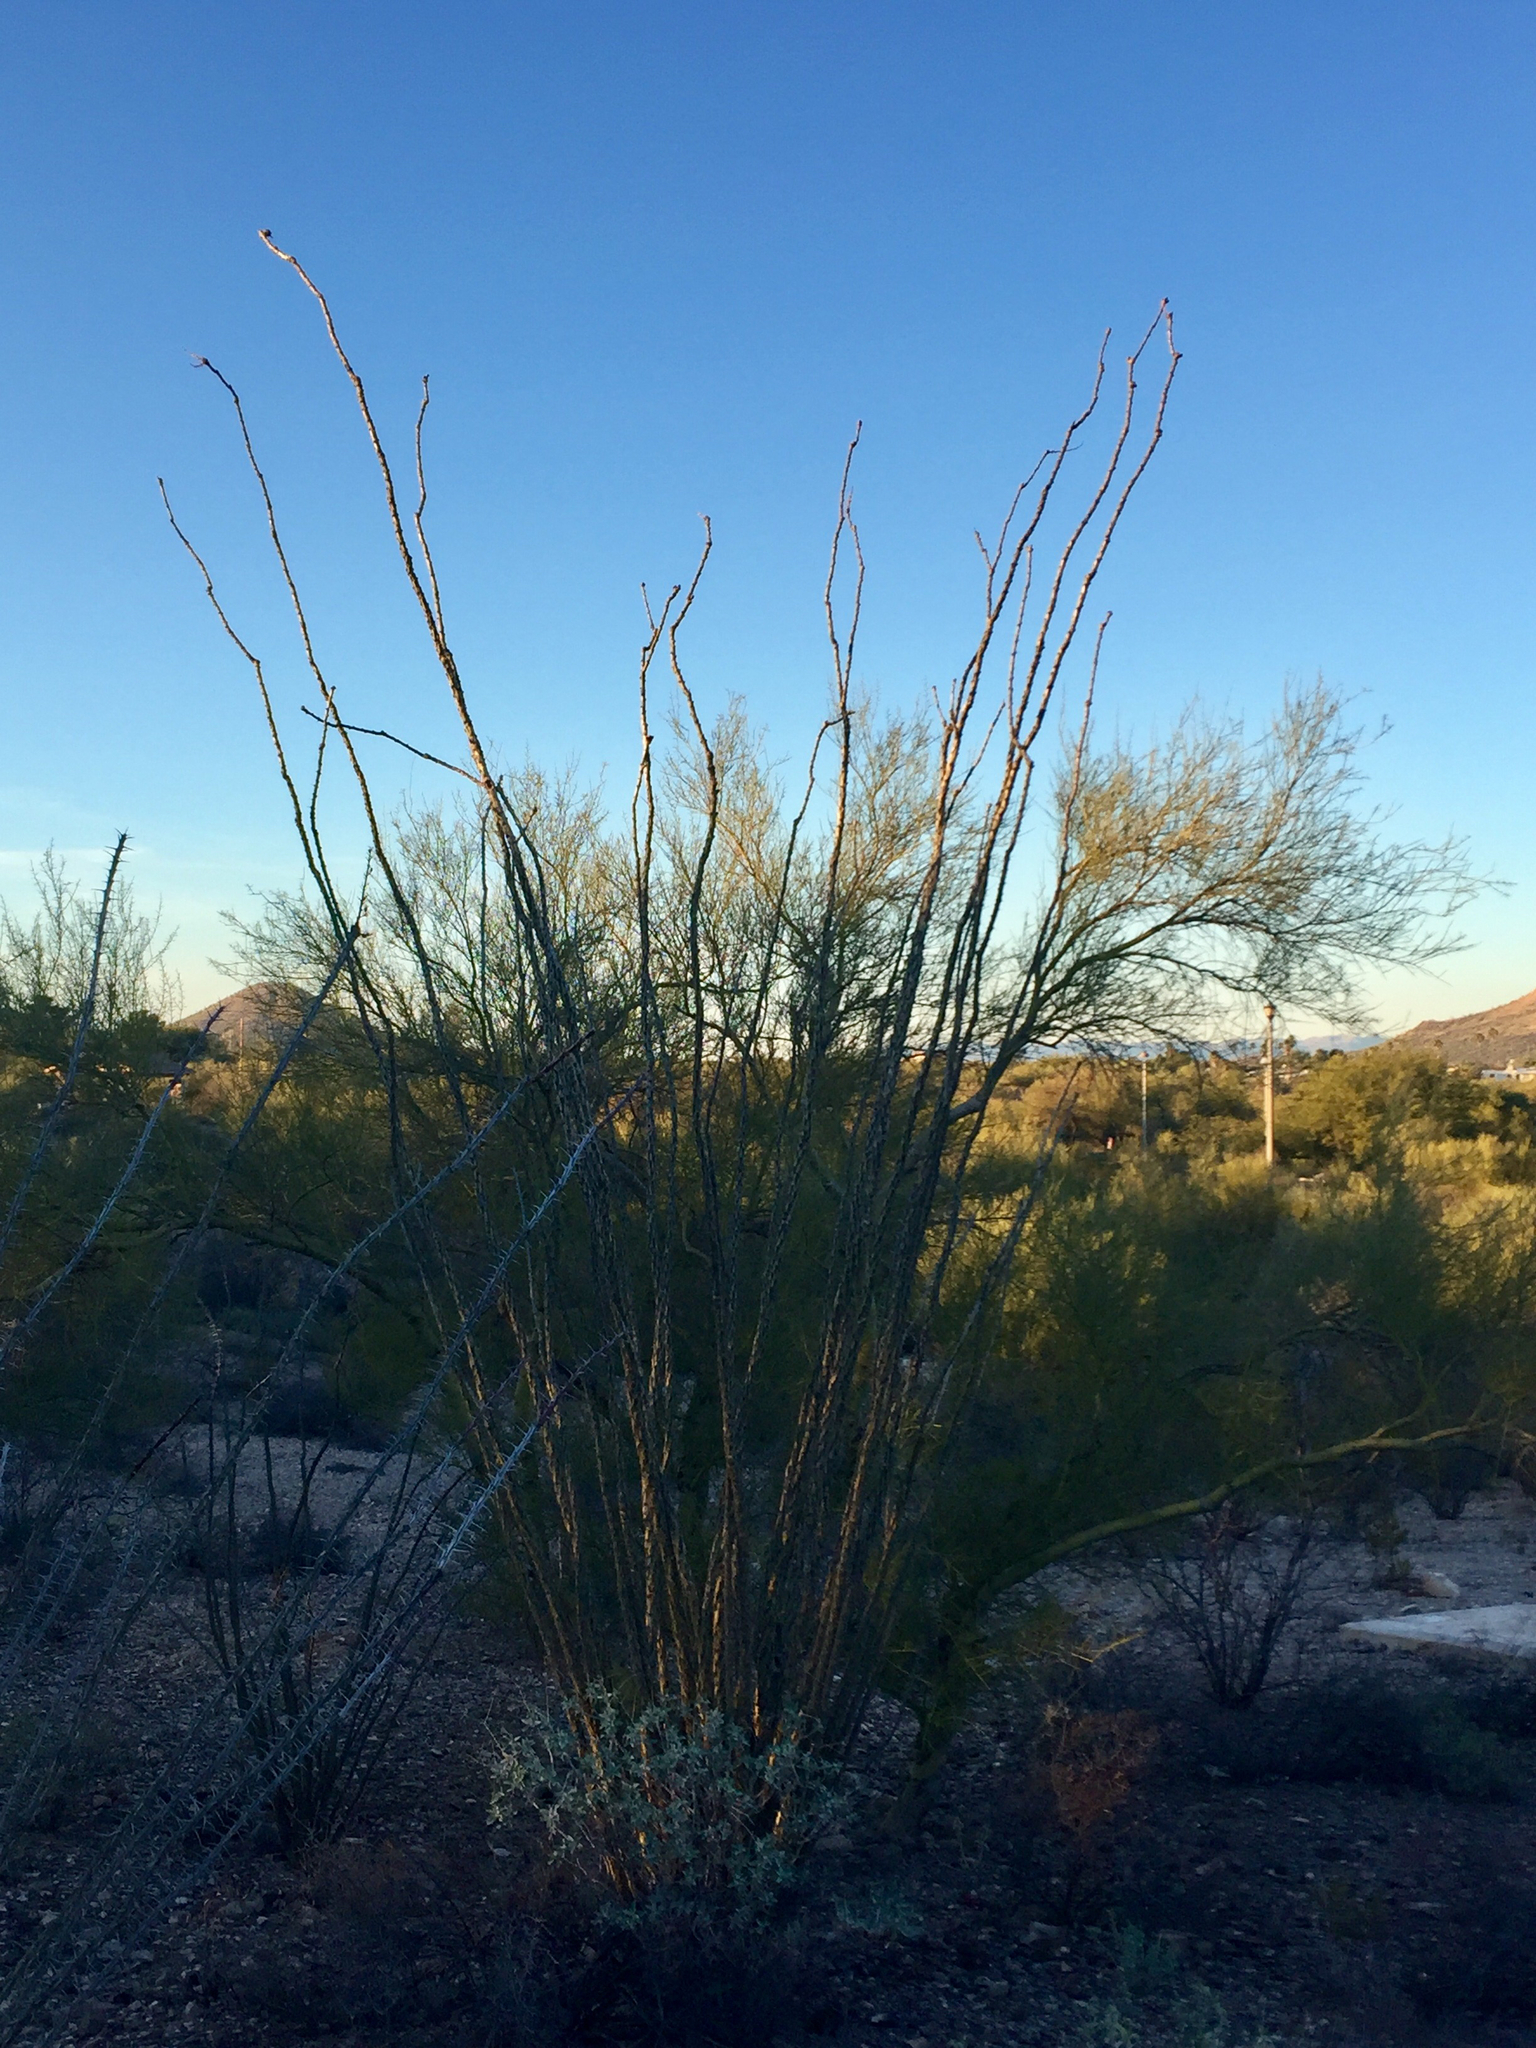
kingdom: Plantae
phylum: Tracheophyta
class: Magnoliopsida
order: Ericales
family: Fouquieriaceae
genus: Fouquieria
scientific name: Fouquieria splendens
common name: Vine-cactus
